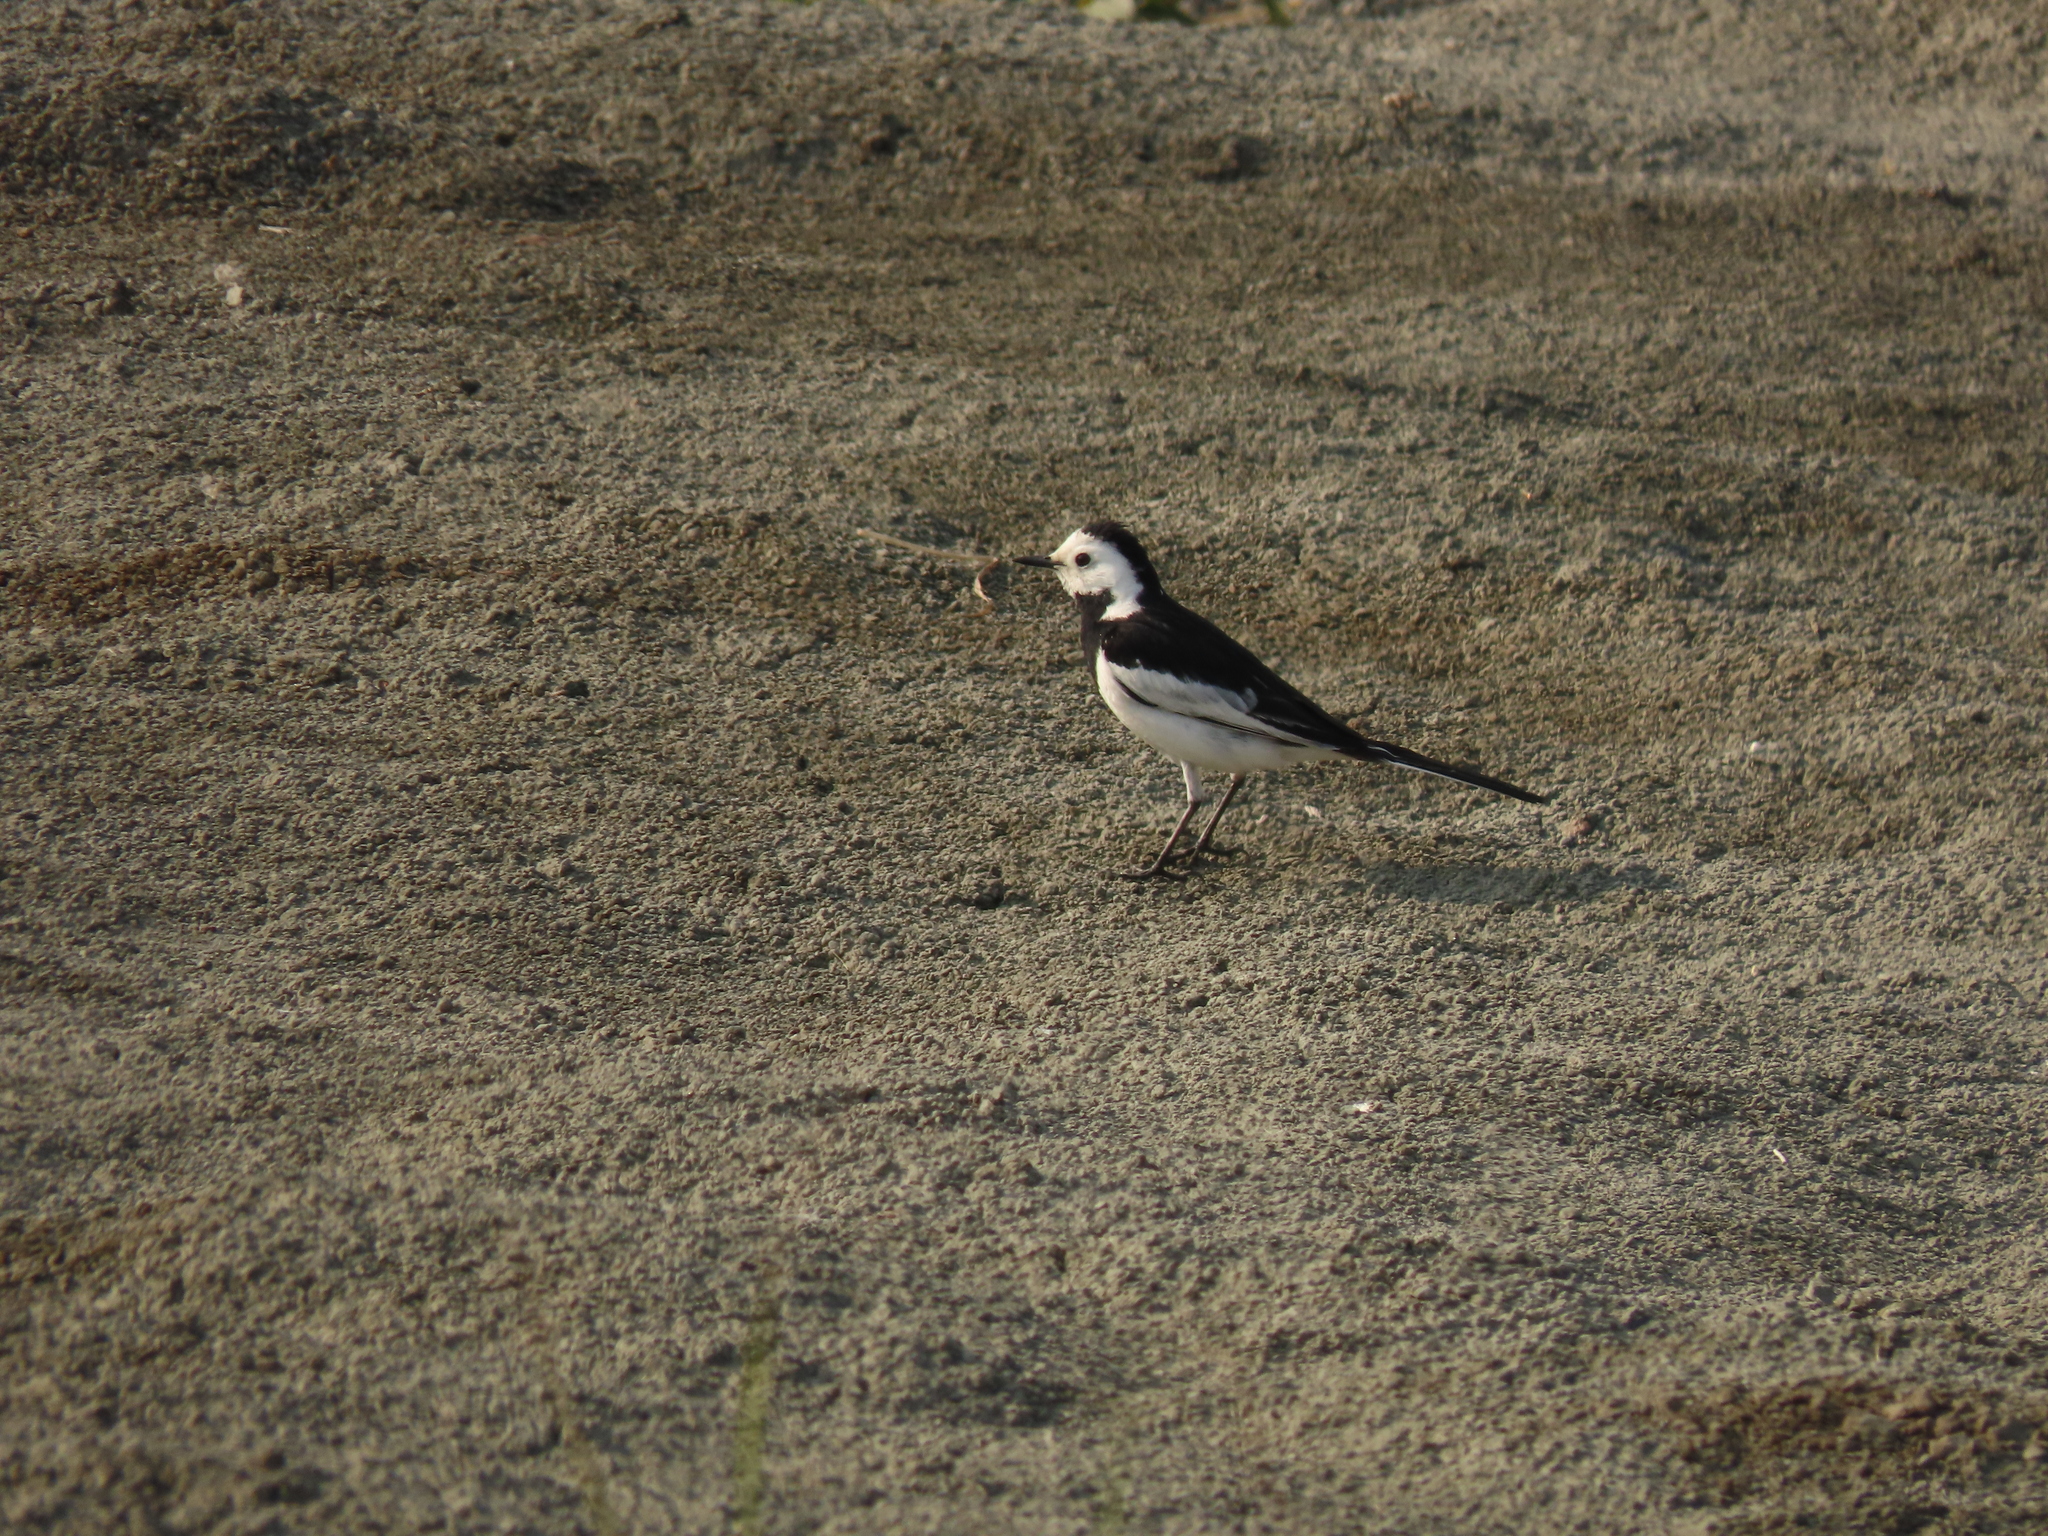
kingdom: Animalia
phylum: Chordata
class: Aves
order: Passeriformes
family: Motacillidae
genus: Motacilla
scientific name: Motacilla alba
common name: White wagtail
